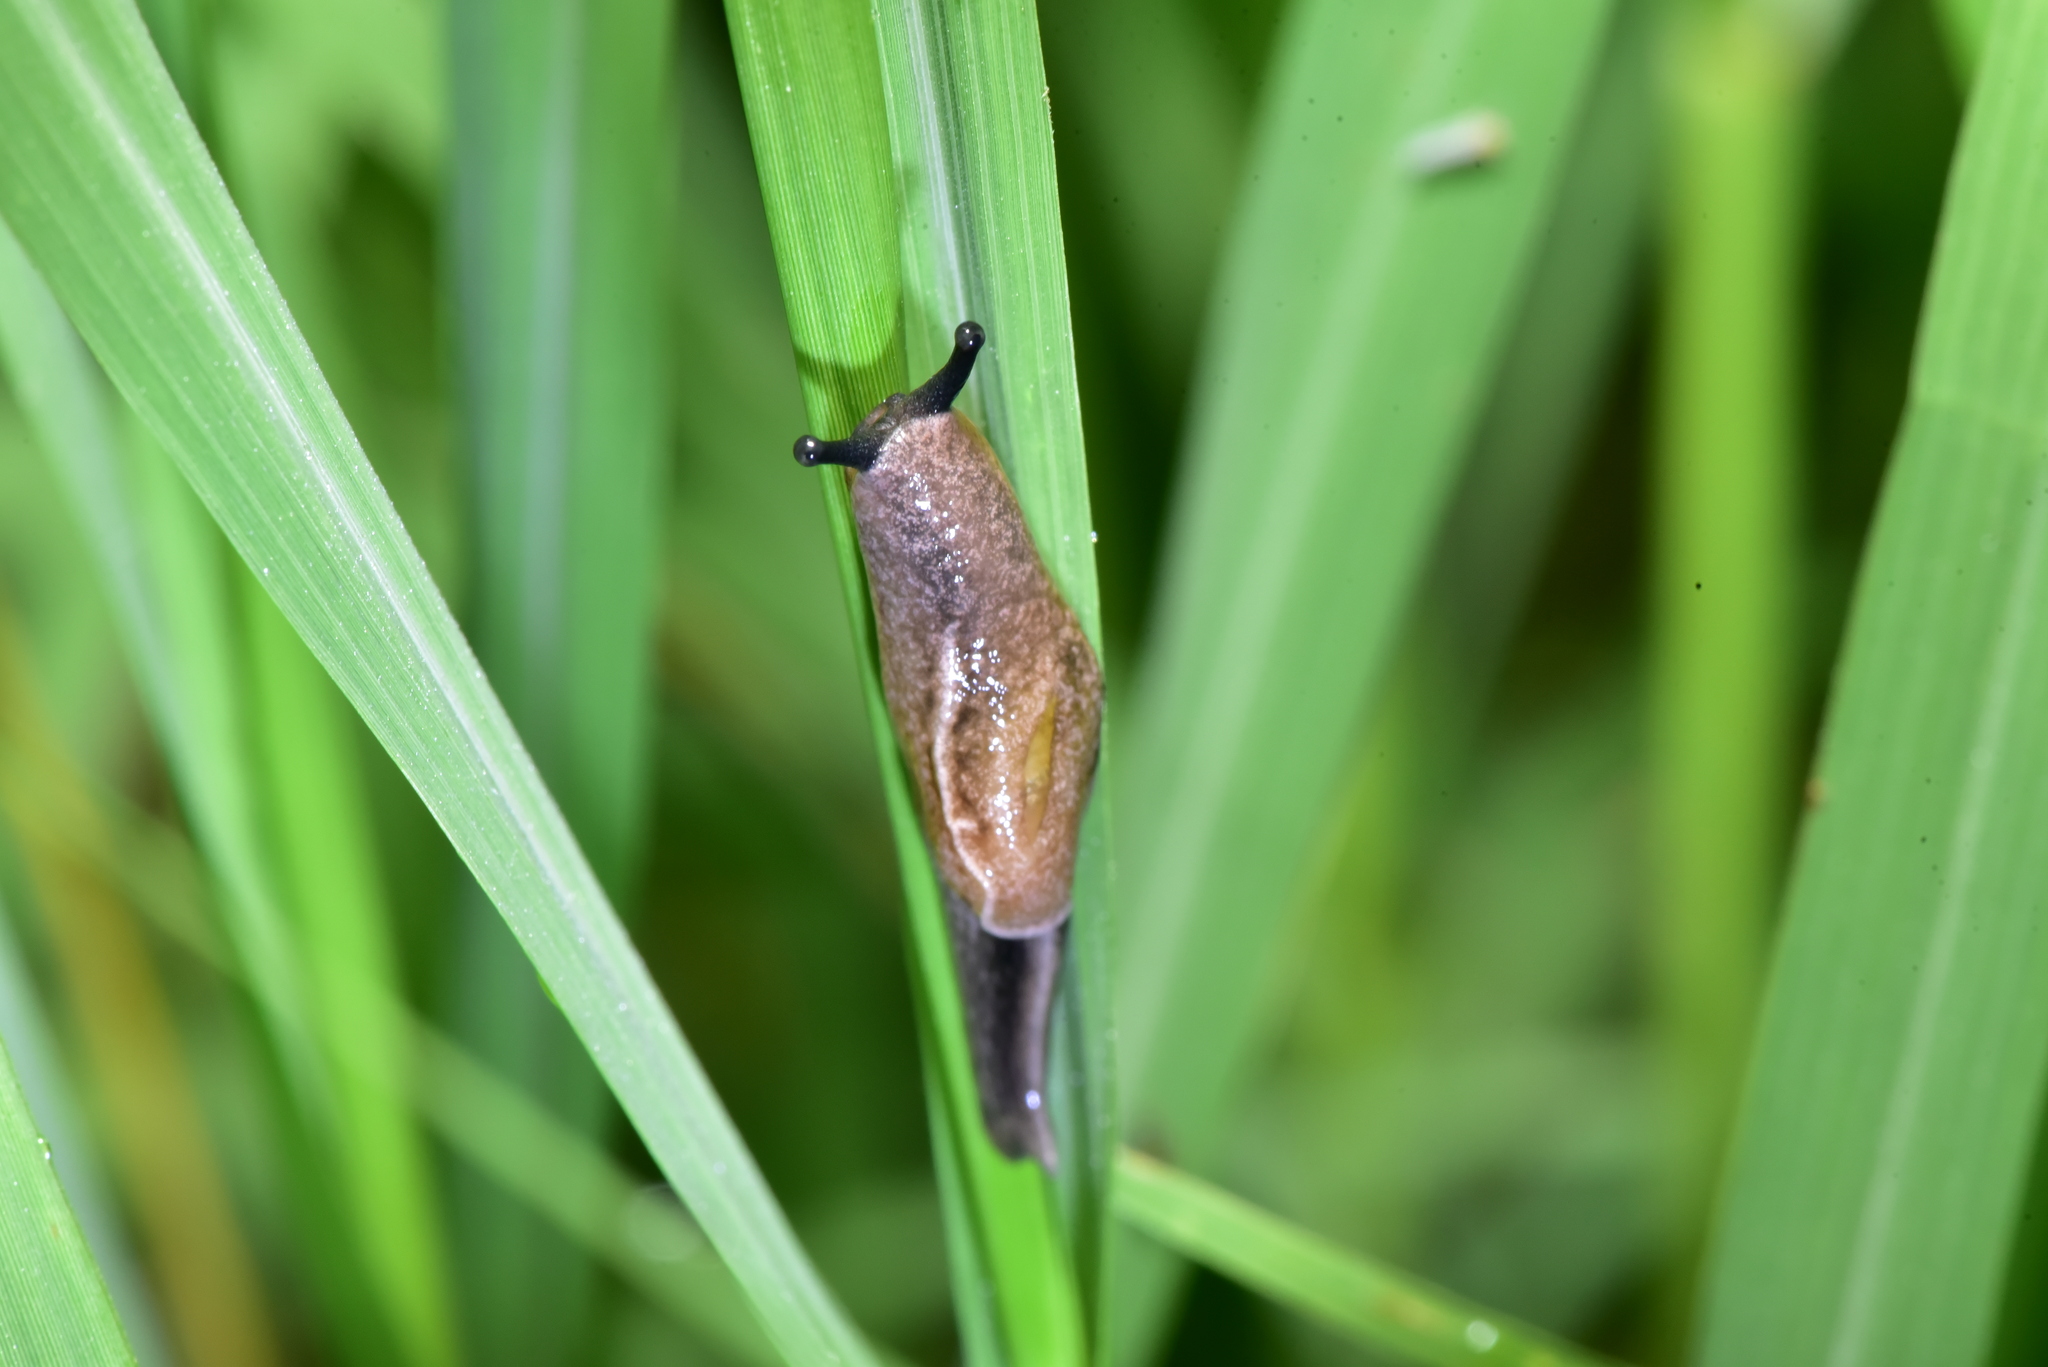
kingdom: Animalia
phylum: Mollusca
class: Gastropoda
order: Stylommatophora
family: Ariophantidae
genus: Parmarion
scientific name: Parmarion martensi
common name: Semi-slug
